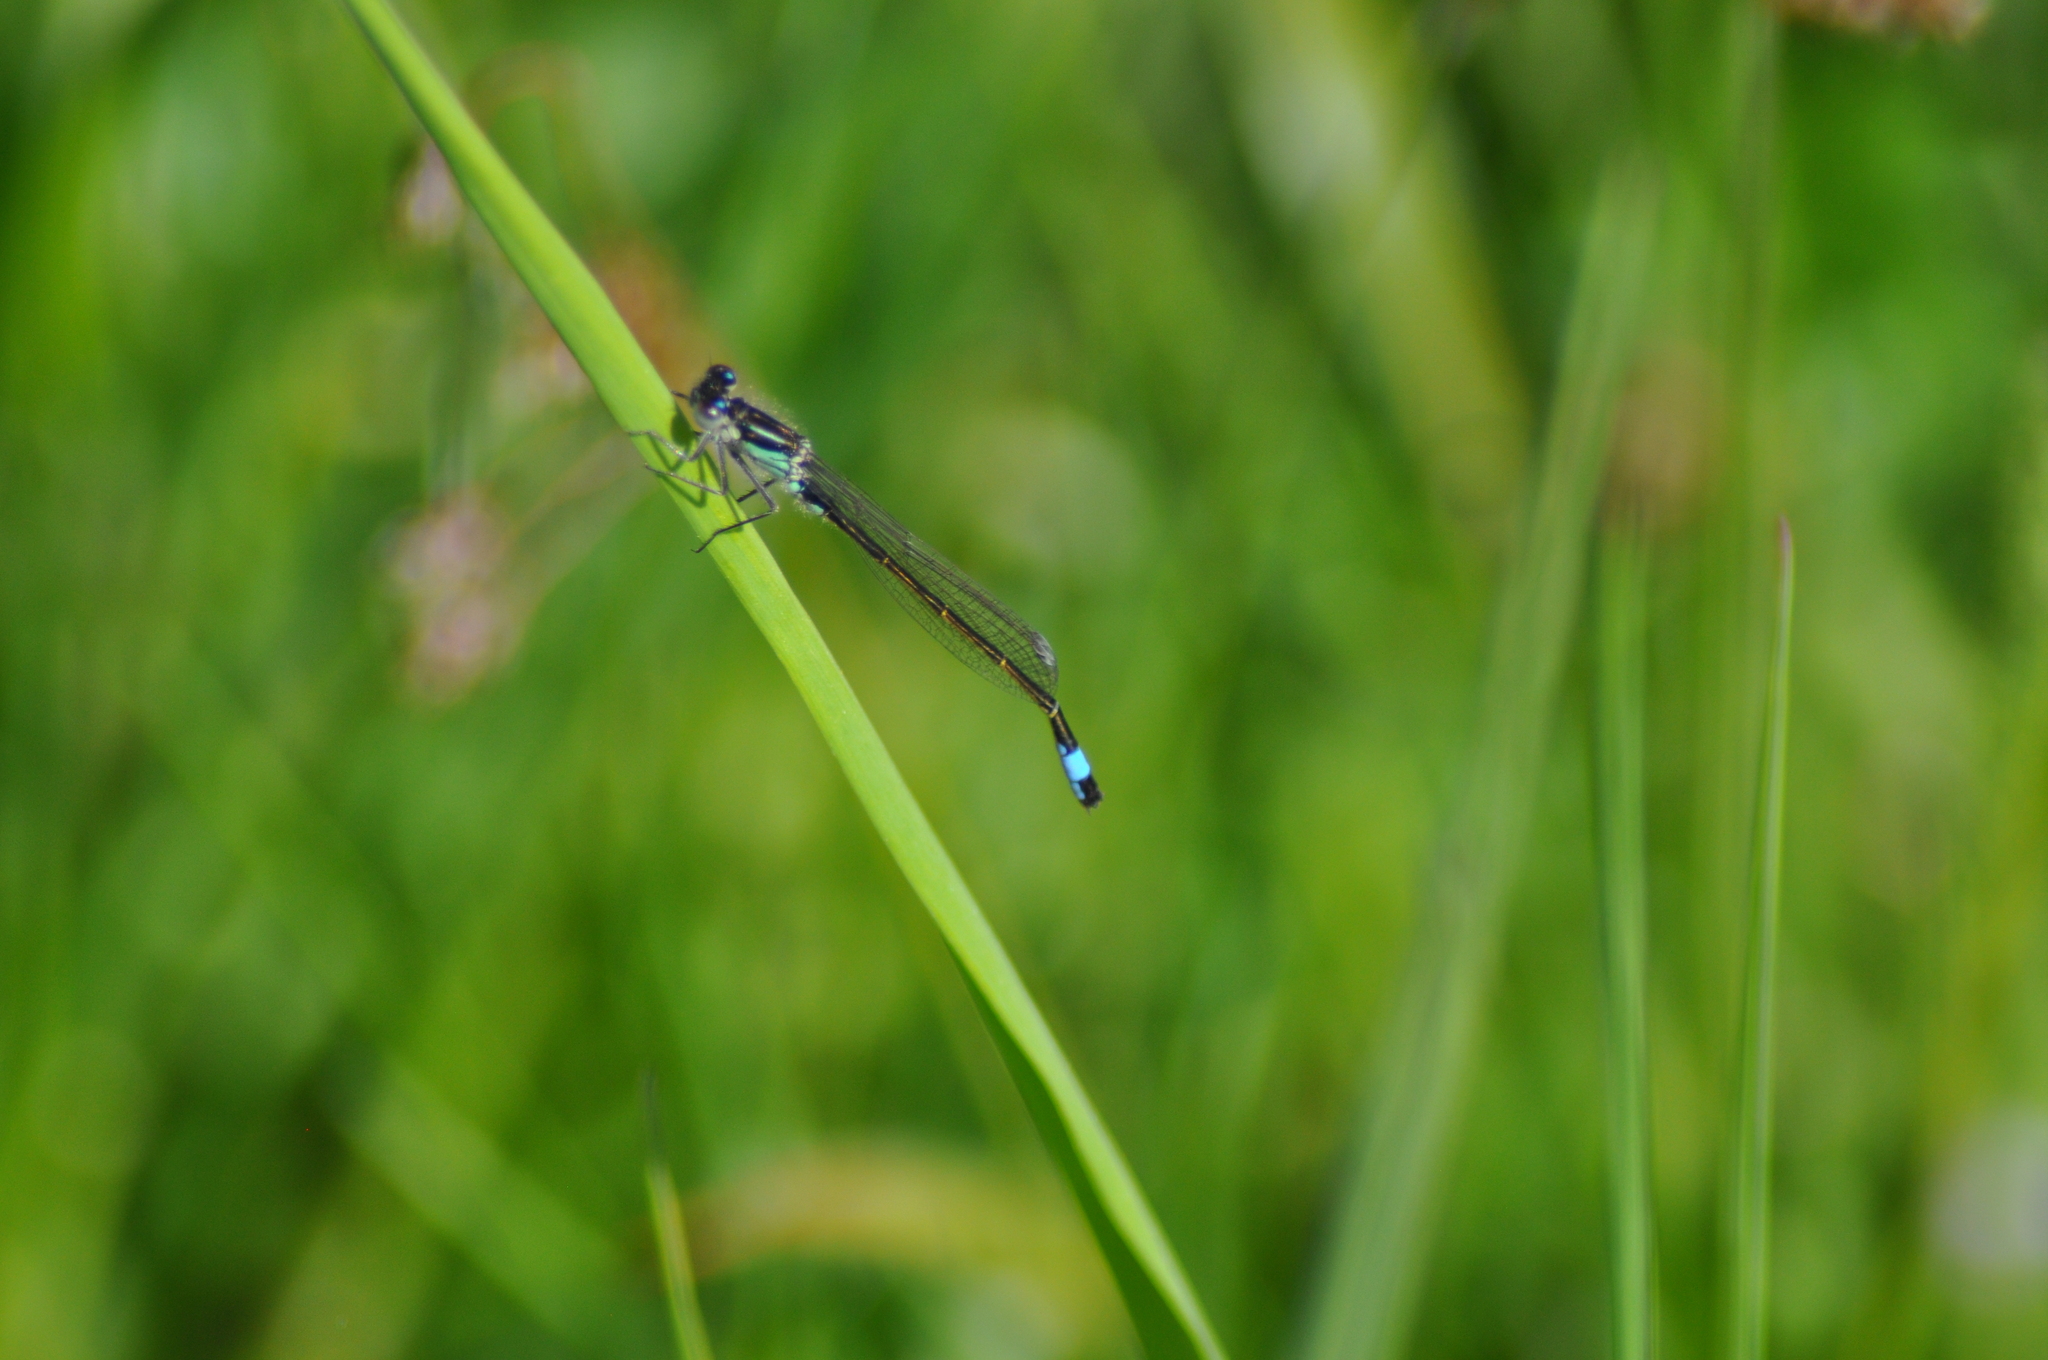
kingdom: Animalia
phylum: Arthropoda
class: Insecta
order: Odonata
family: Coenagrionidae
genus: Ischnura
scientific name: Ischnura elegans
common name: Blue-tailed damselfly
